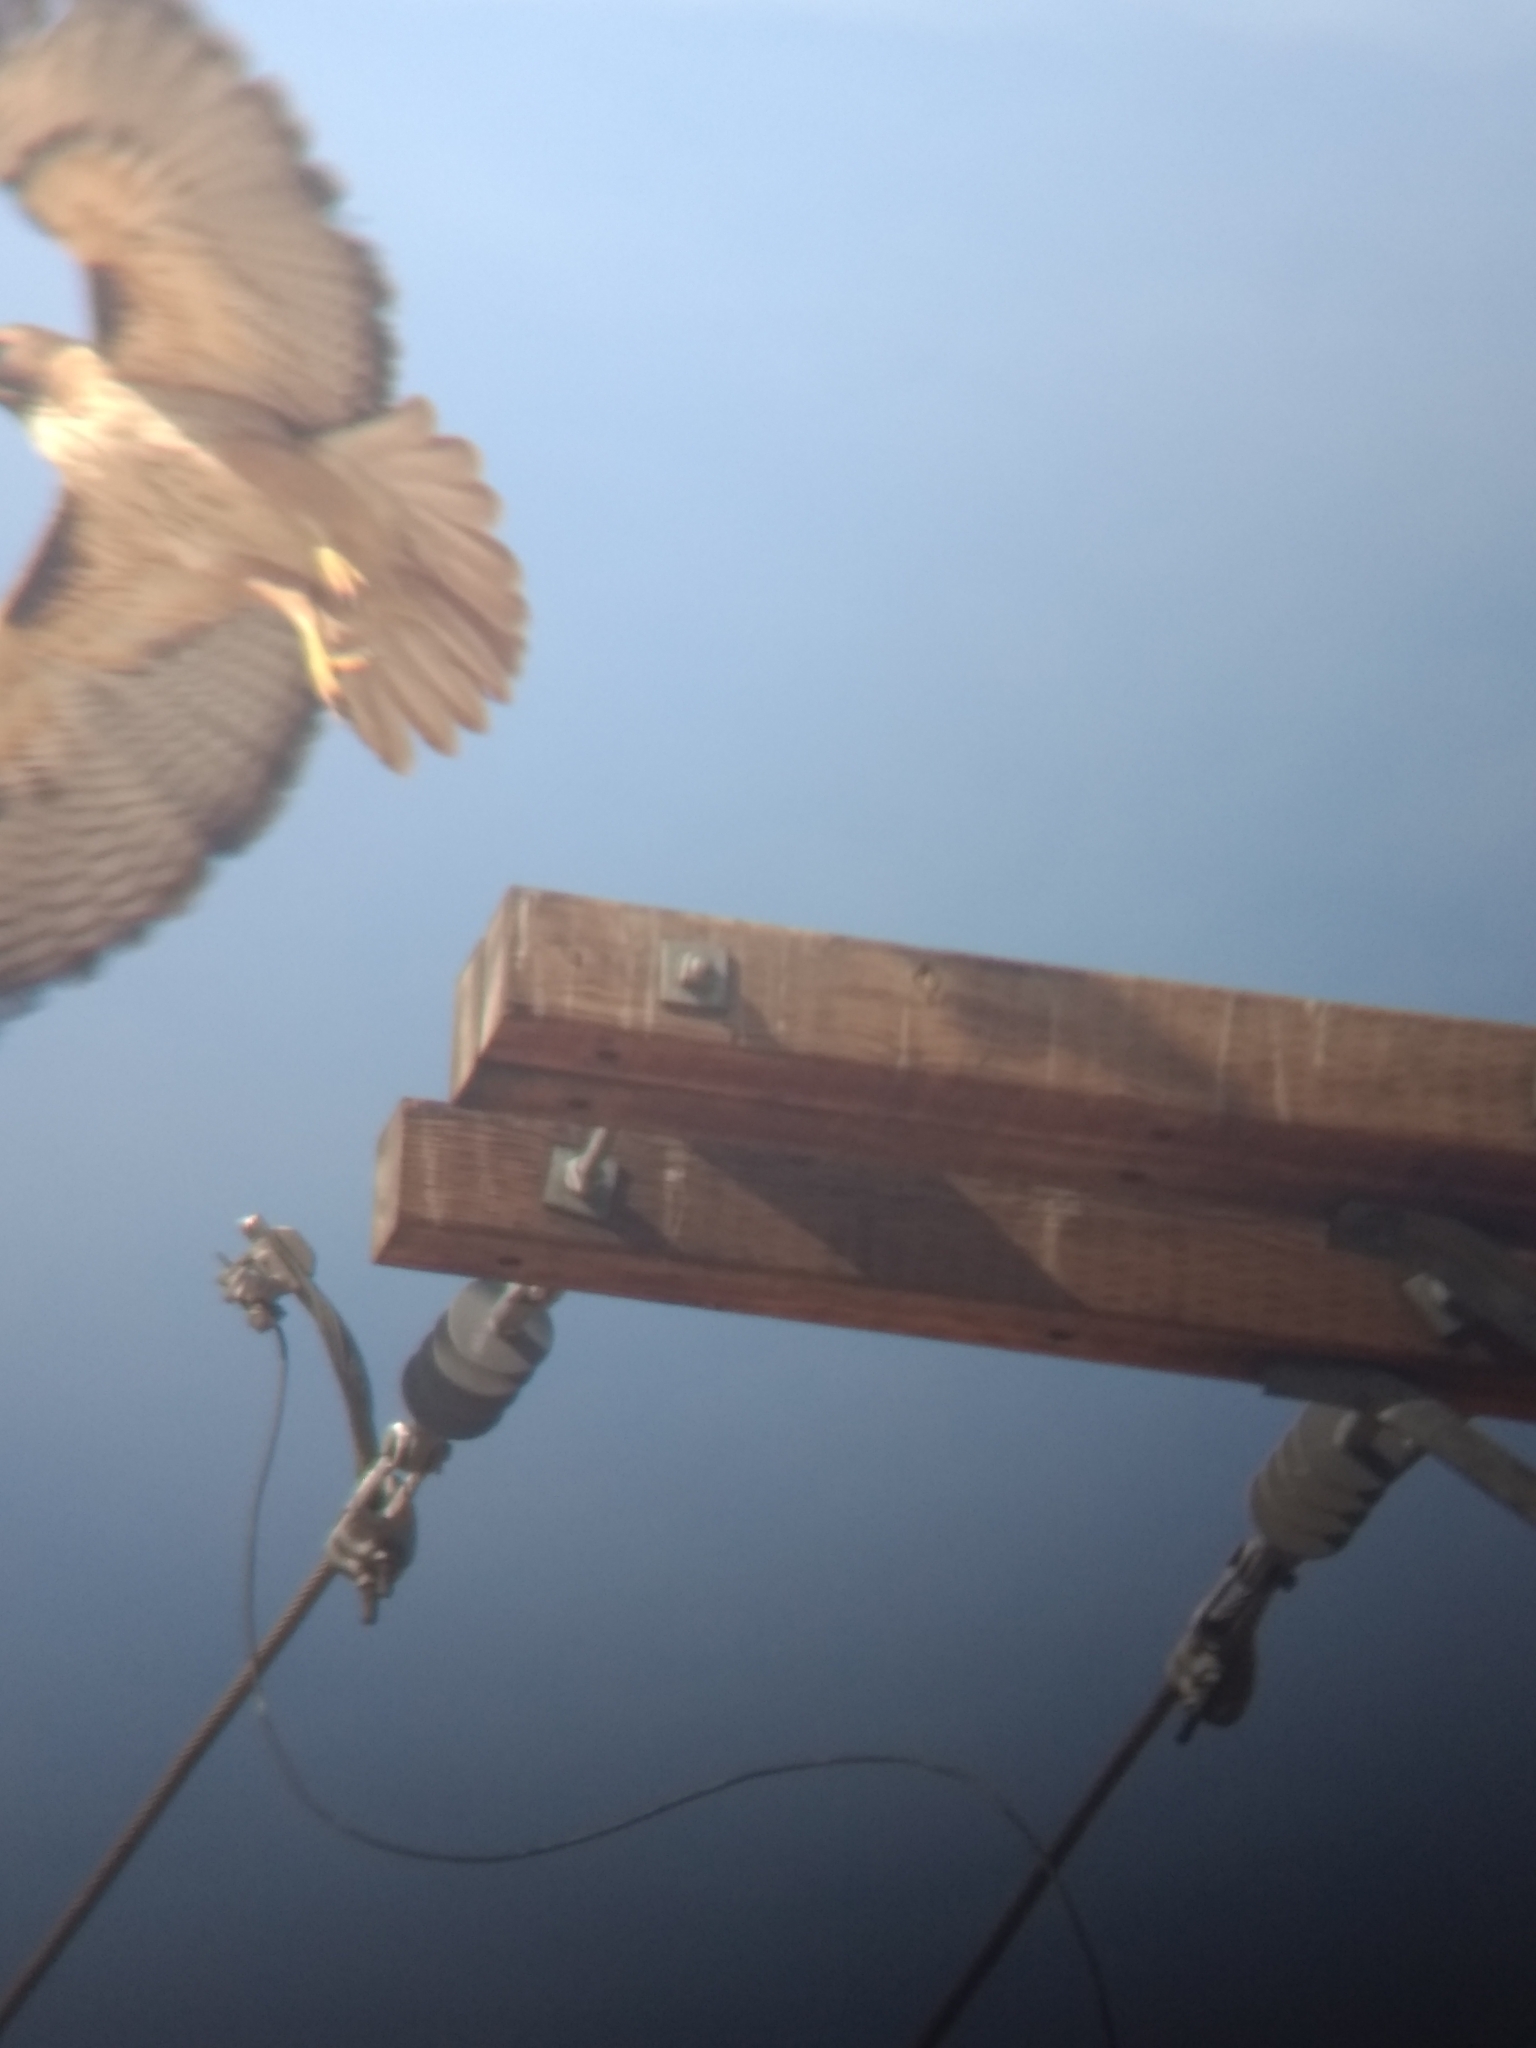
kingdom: Animalia
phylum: Chordata
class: Aves
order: Accipitriformes
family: Accipitridae
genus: Buteo
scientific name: Buteo jamaicensis
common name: Red-tailed hawk
